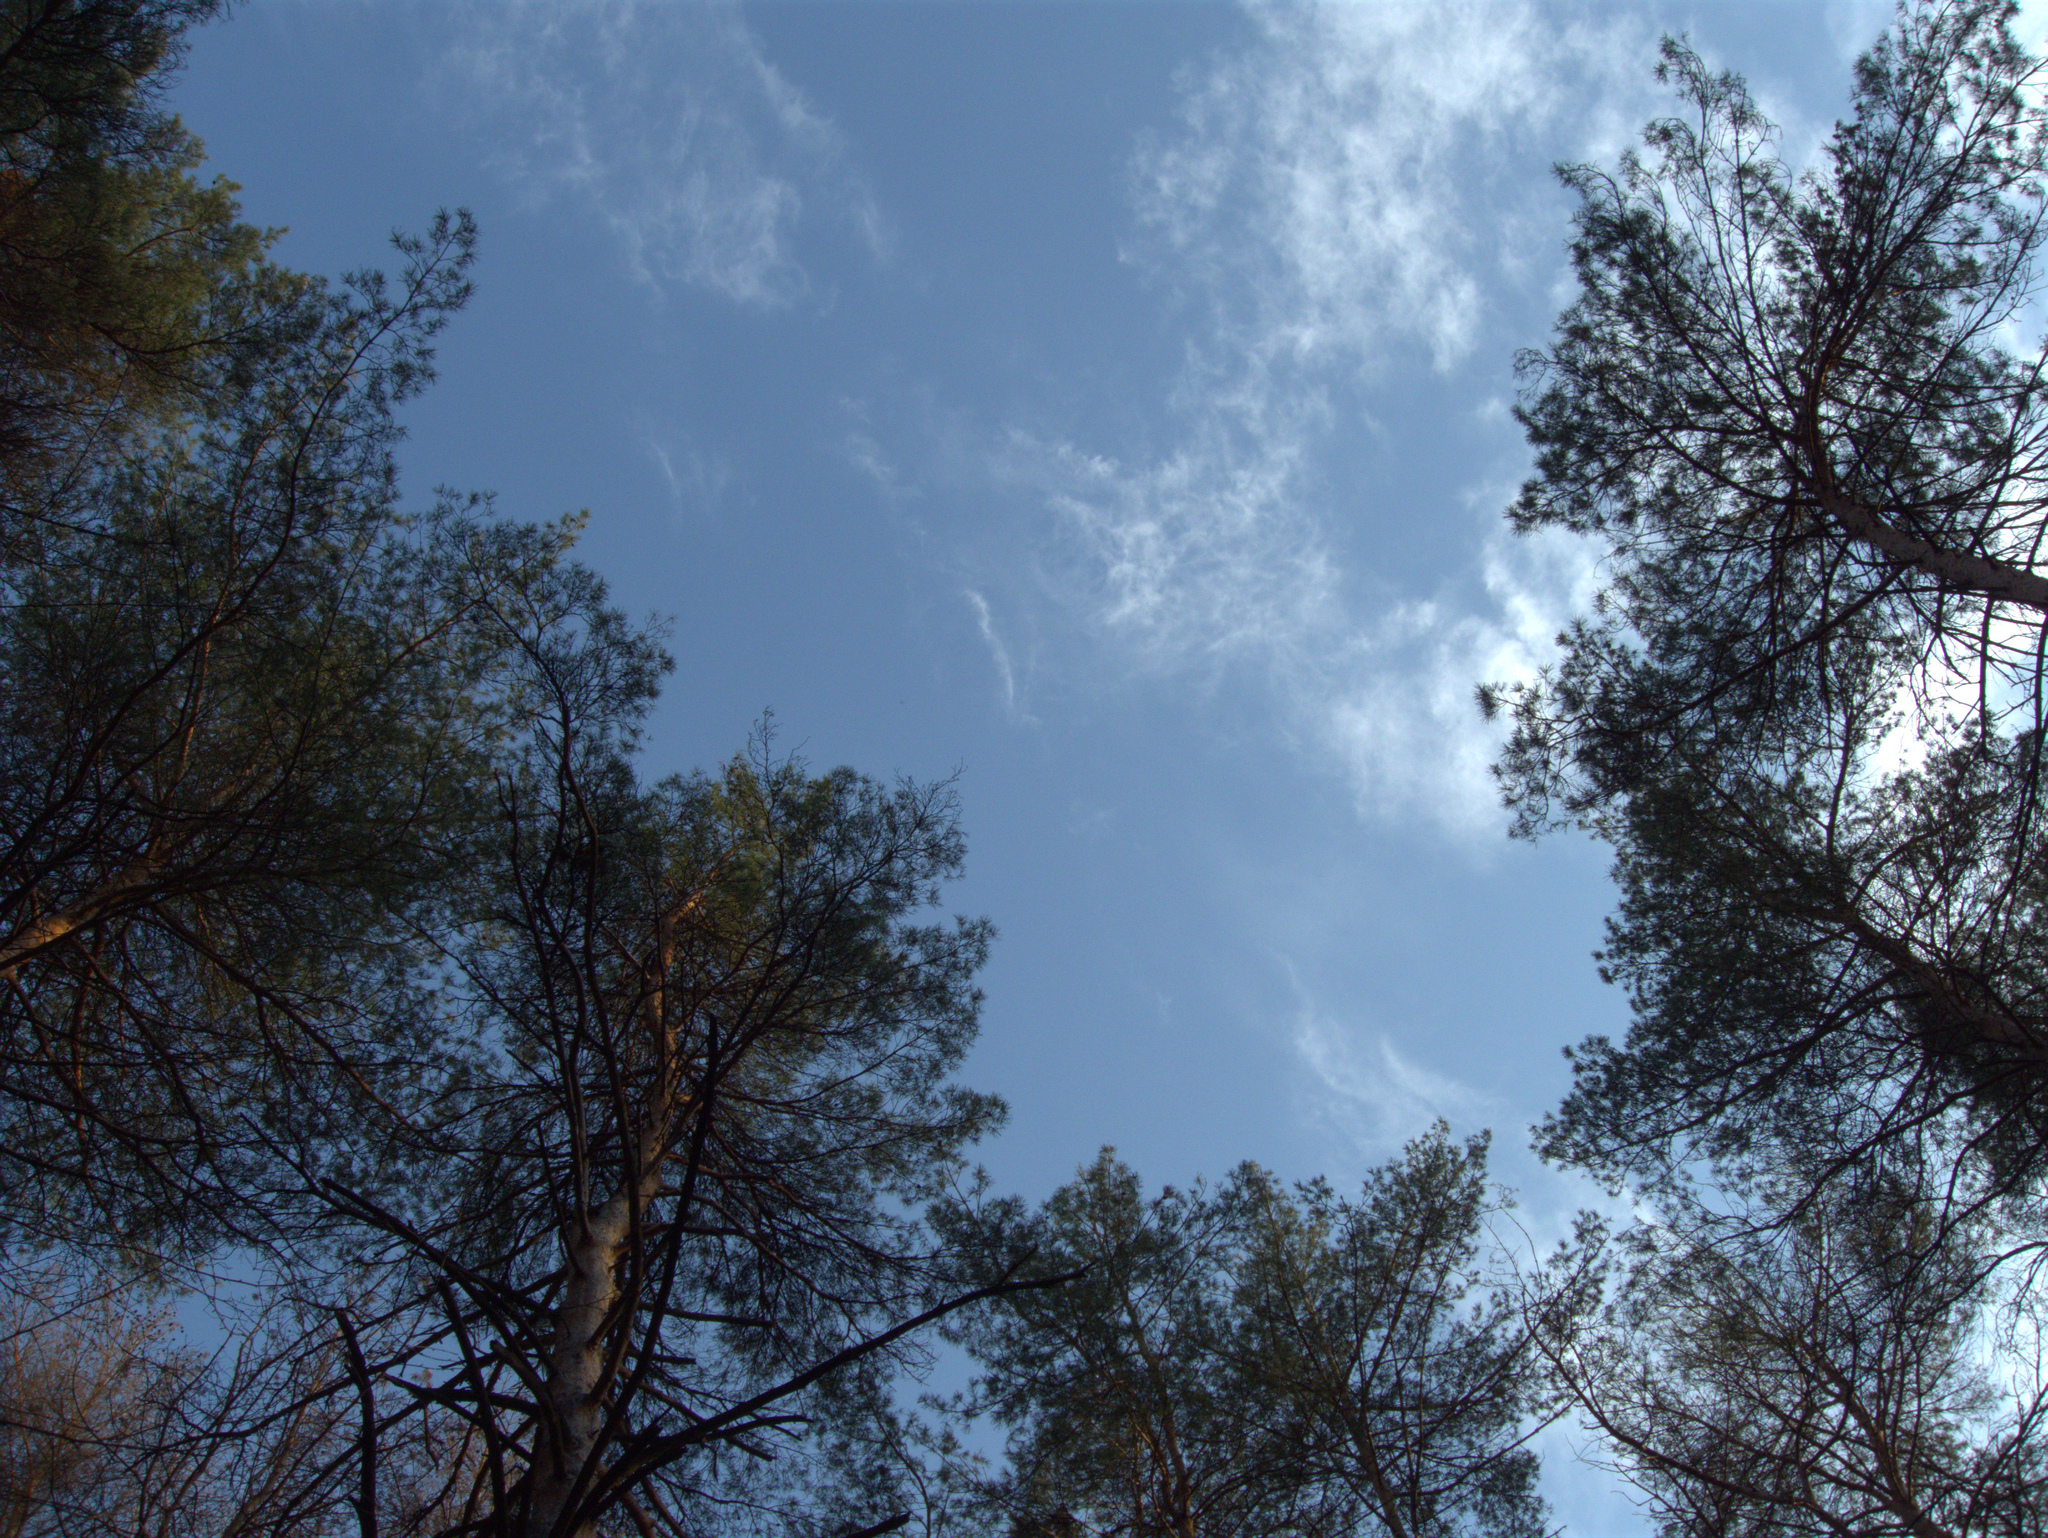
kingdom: Plantae
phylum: Tracheophyta
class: Pinopsida
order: Pinales
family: Pinaceae
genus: Pinus
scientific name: Pinus sylvestris
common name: Scots pine
